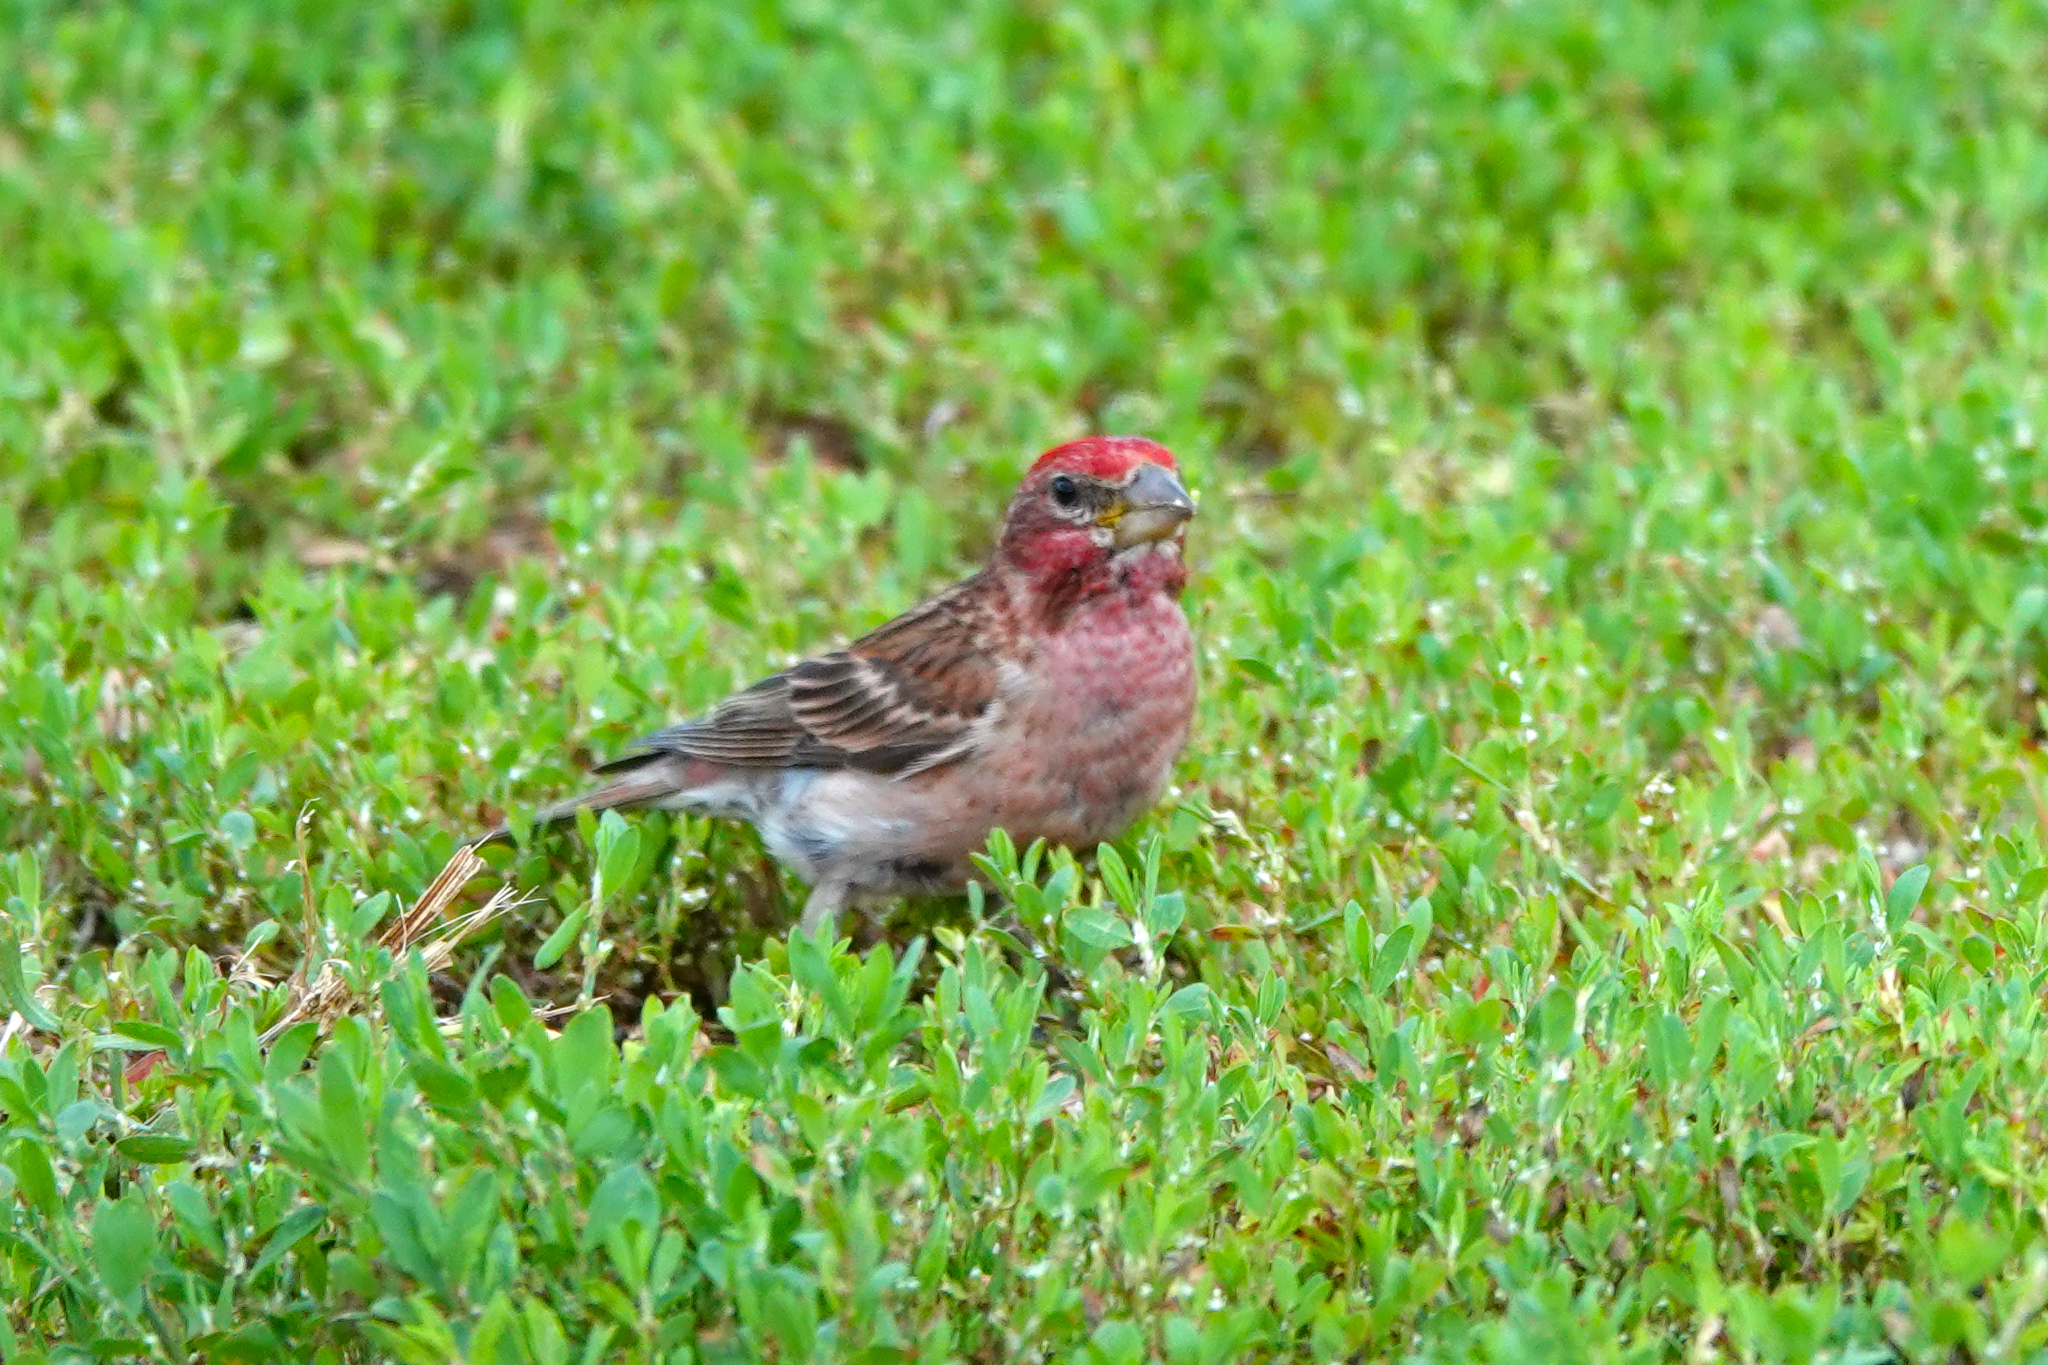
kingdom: Animalia
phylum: Chordata
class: Aves
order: Passeriformes
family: Fringillidae
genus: Haemorhous
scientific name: Haemorhous cassinii
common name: Cassin's finch
